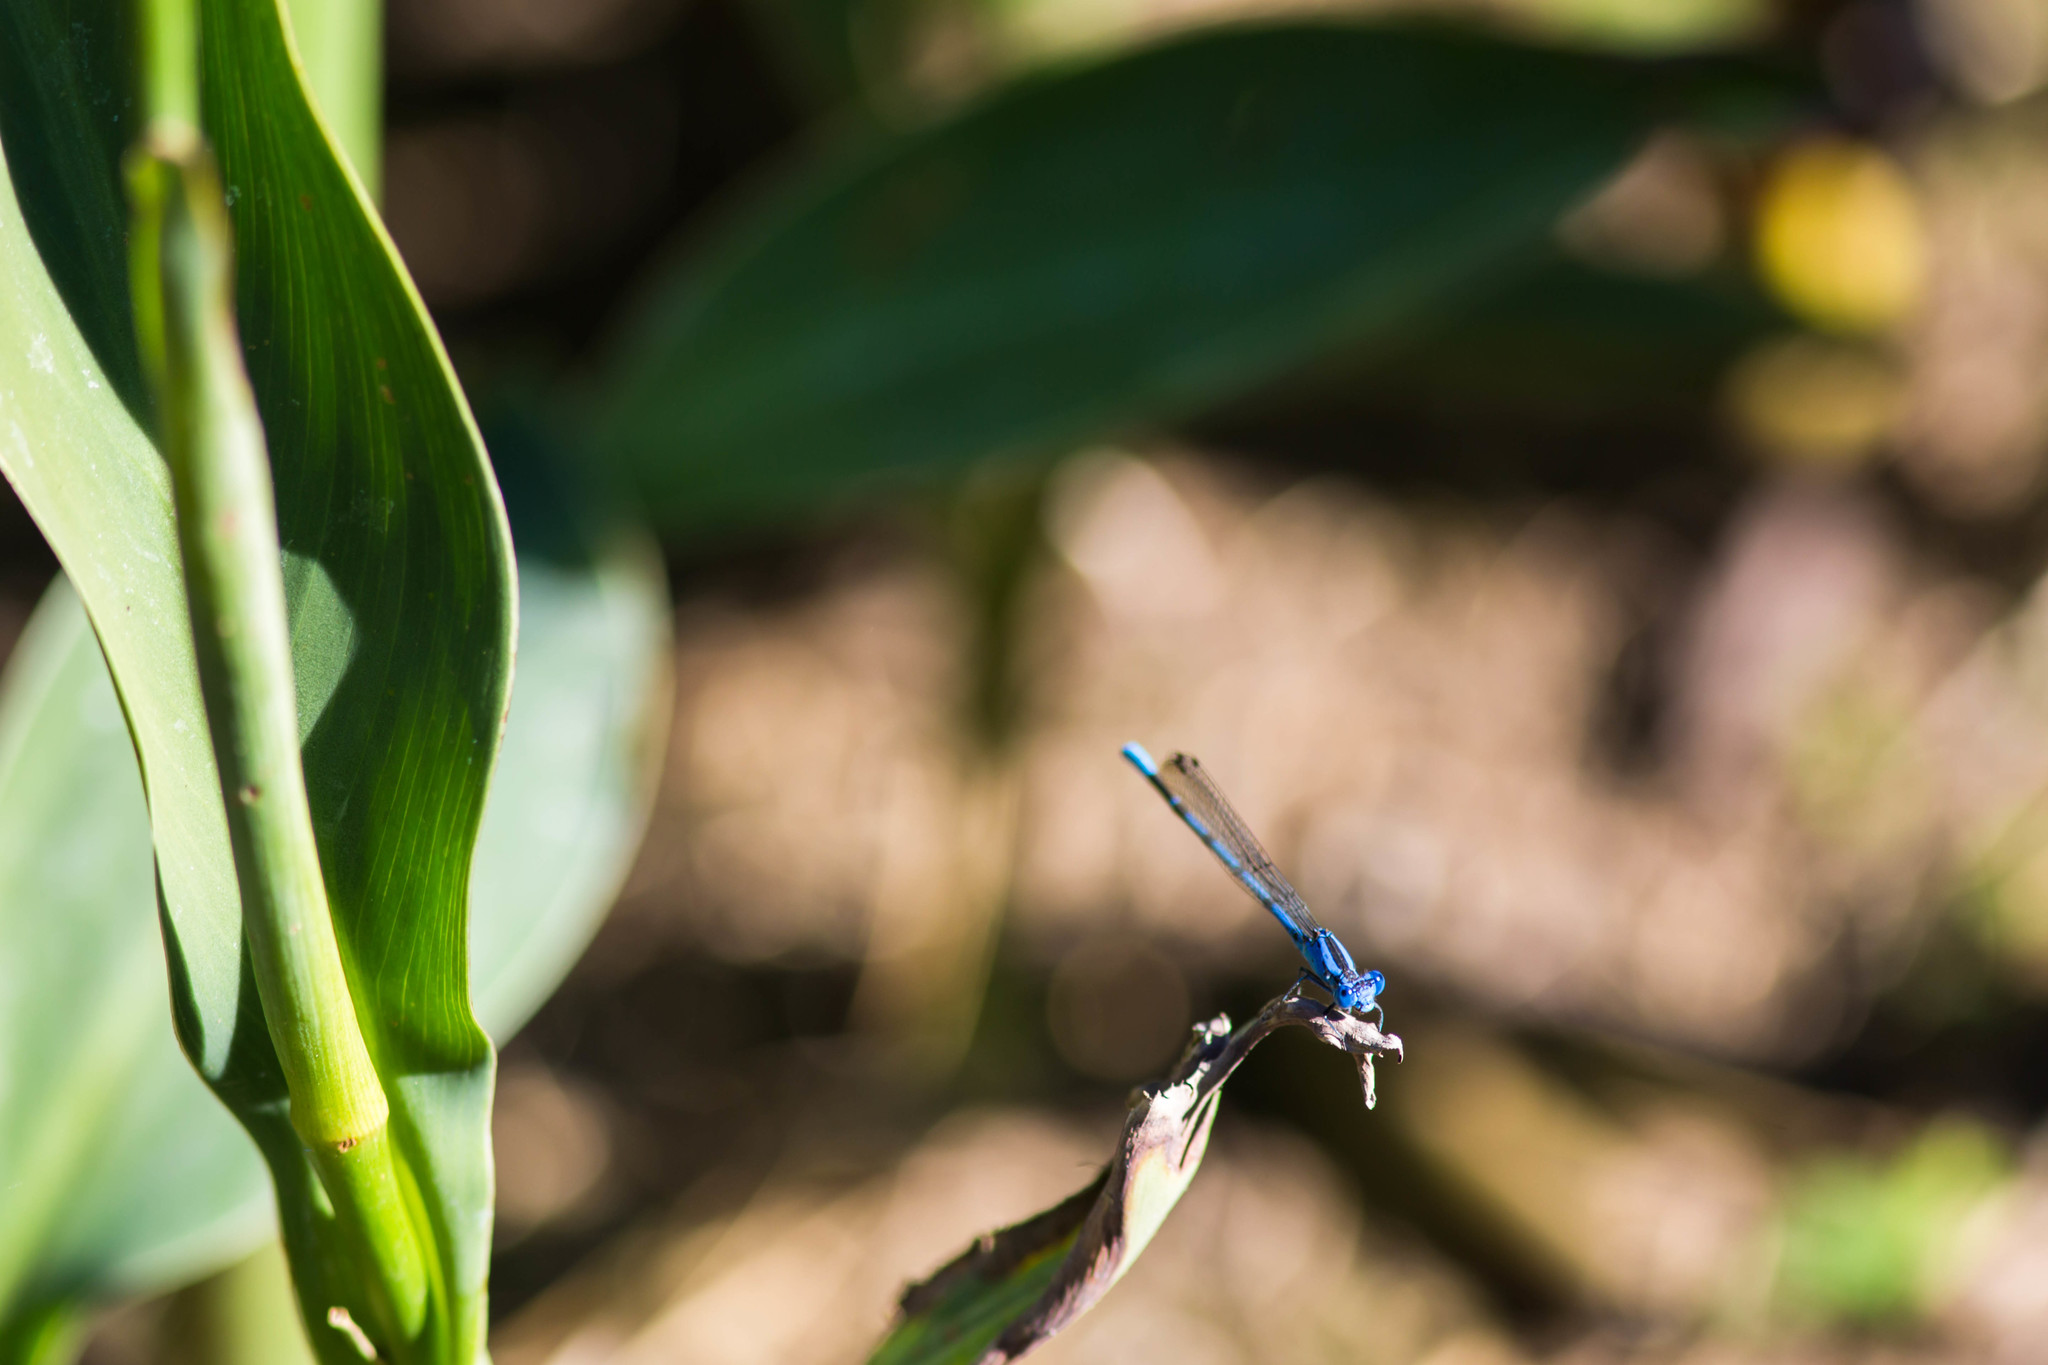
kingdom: Animalia
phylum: Arthropoda
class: Insecta
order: Odonata
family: Coenagrionidae
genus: Argia
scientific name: Argia vivida
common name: Vivid dancer
